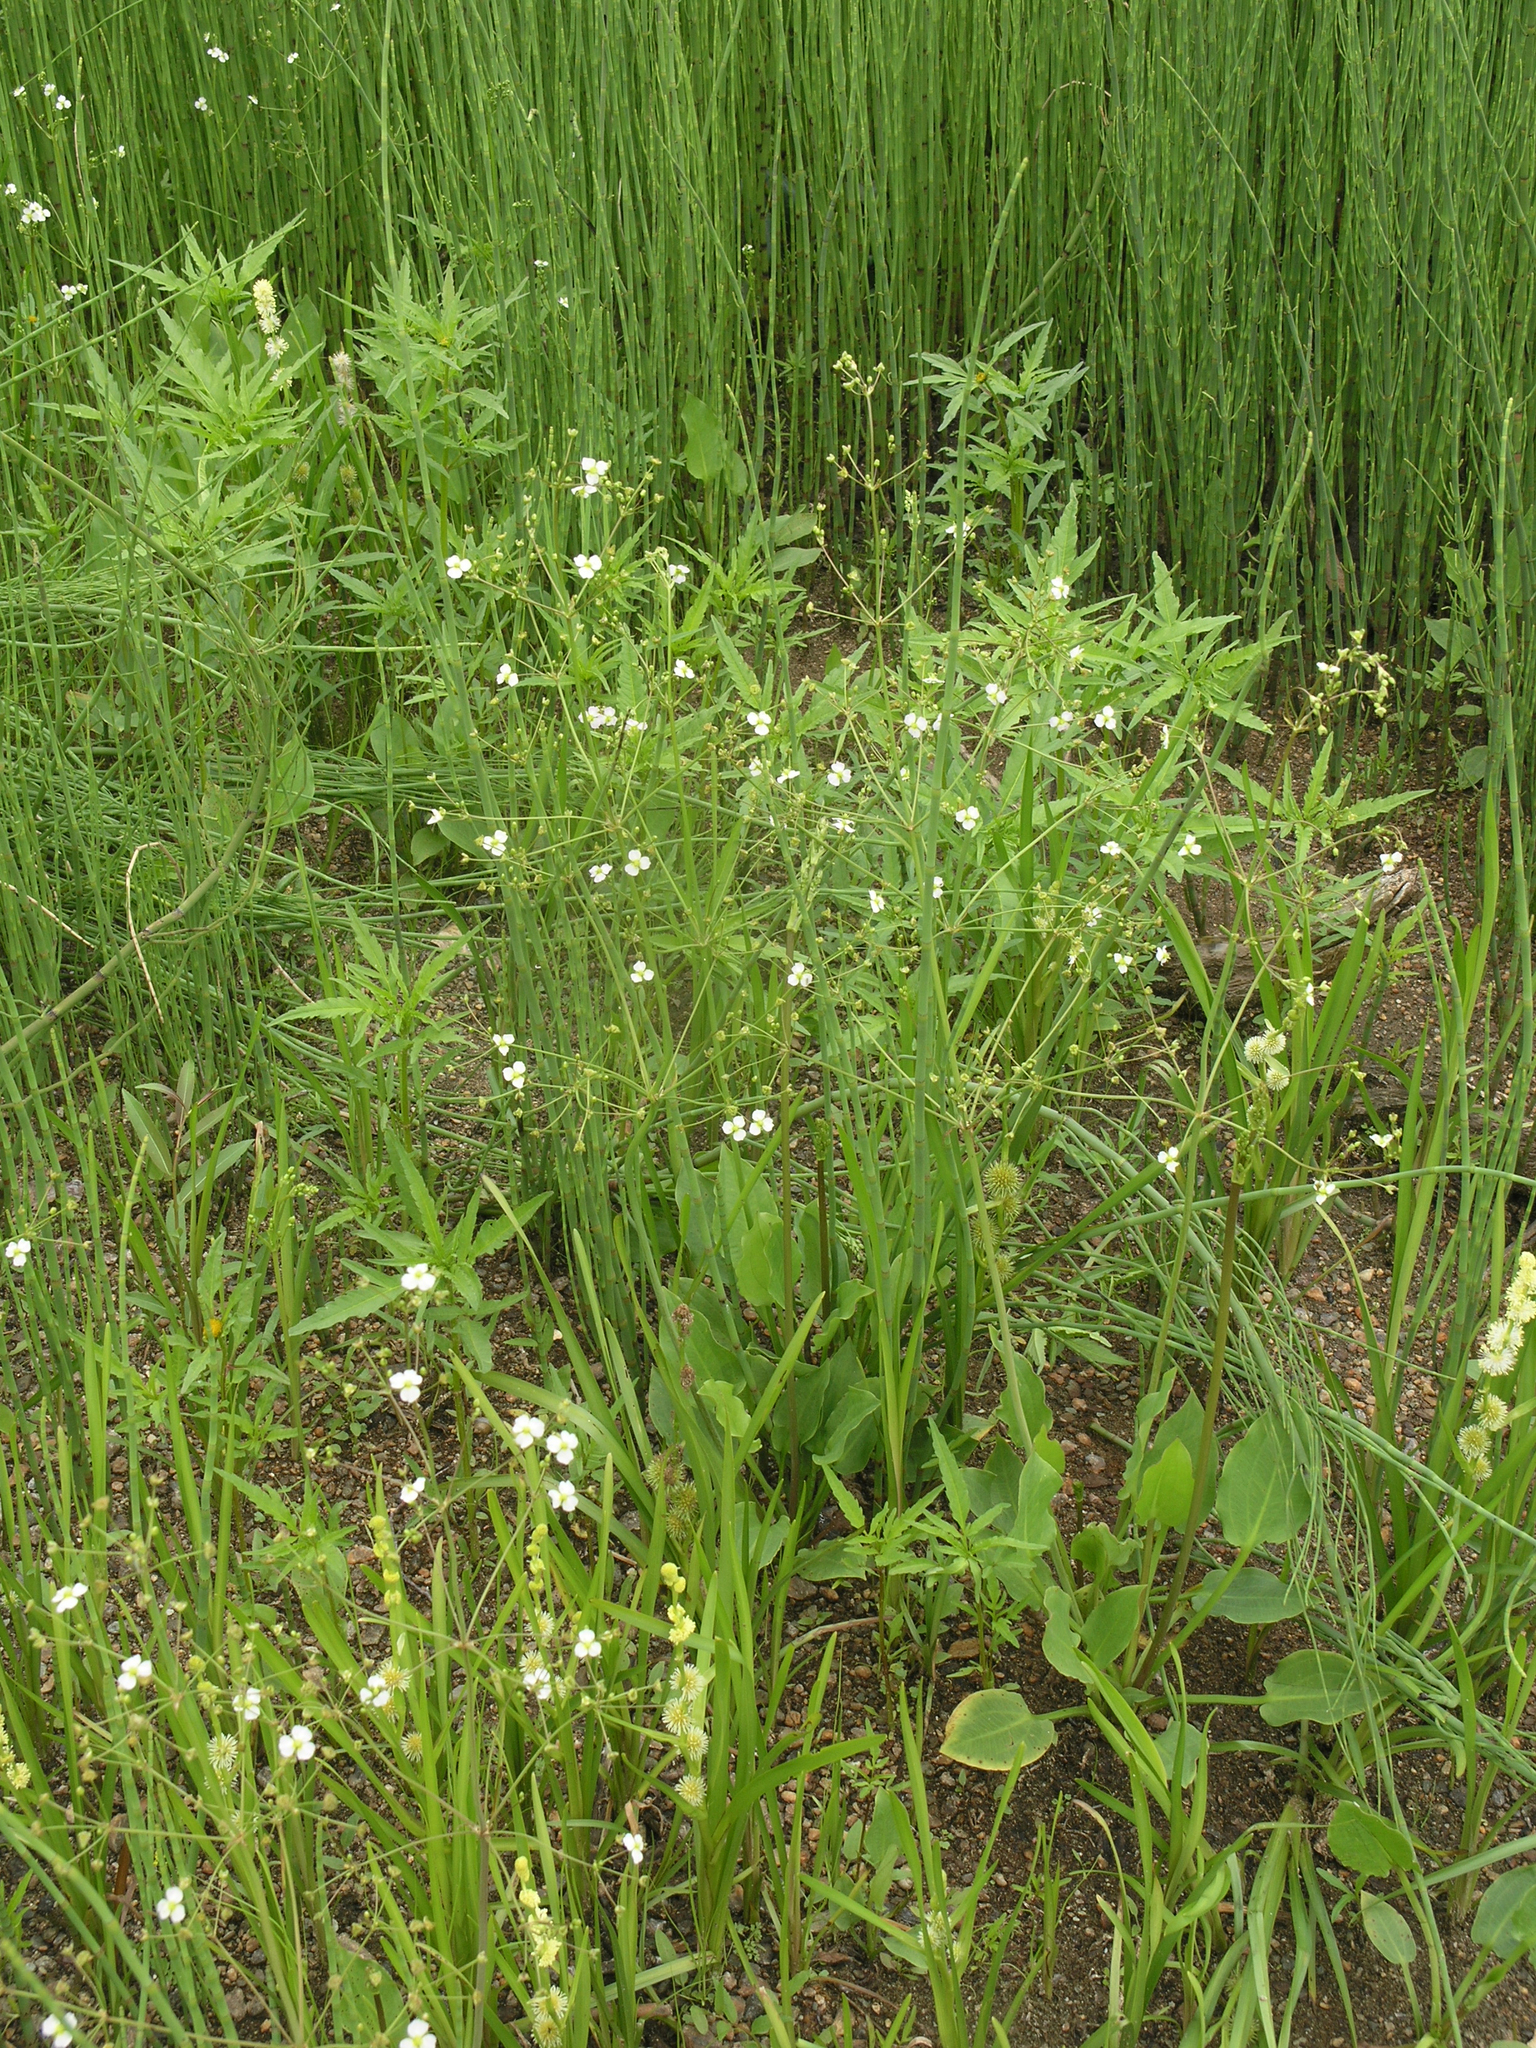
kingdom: Plantae
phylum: Tracheophyta
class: Liliopsida
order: Alismatales
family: Alismataceae
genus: Alisma
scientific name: Alisma plantago-aquatica
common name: Water-plantain
